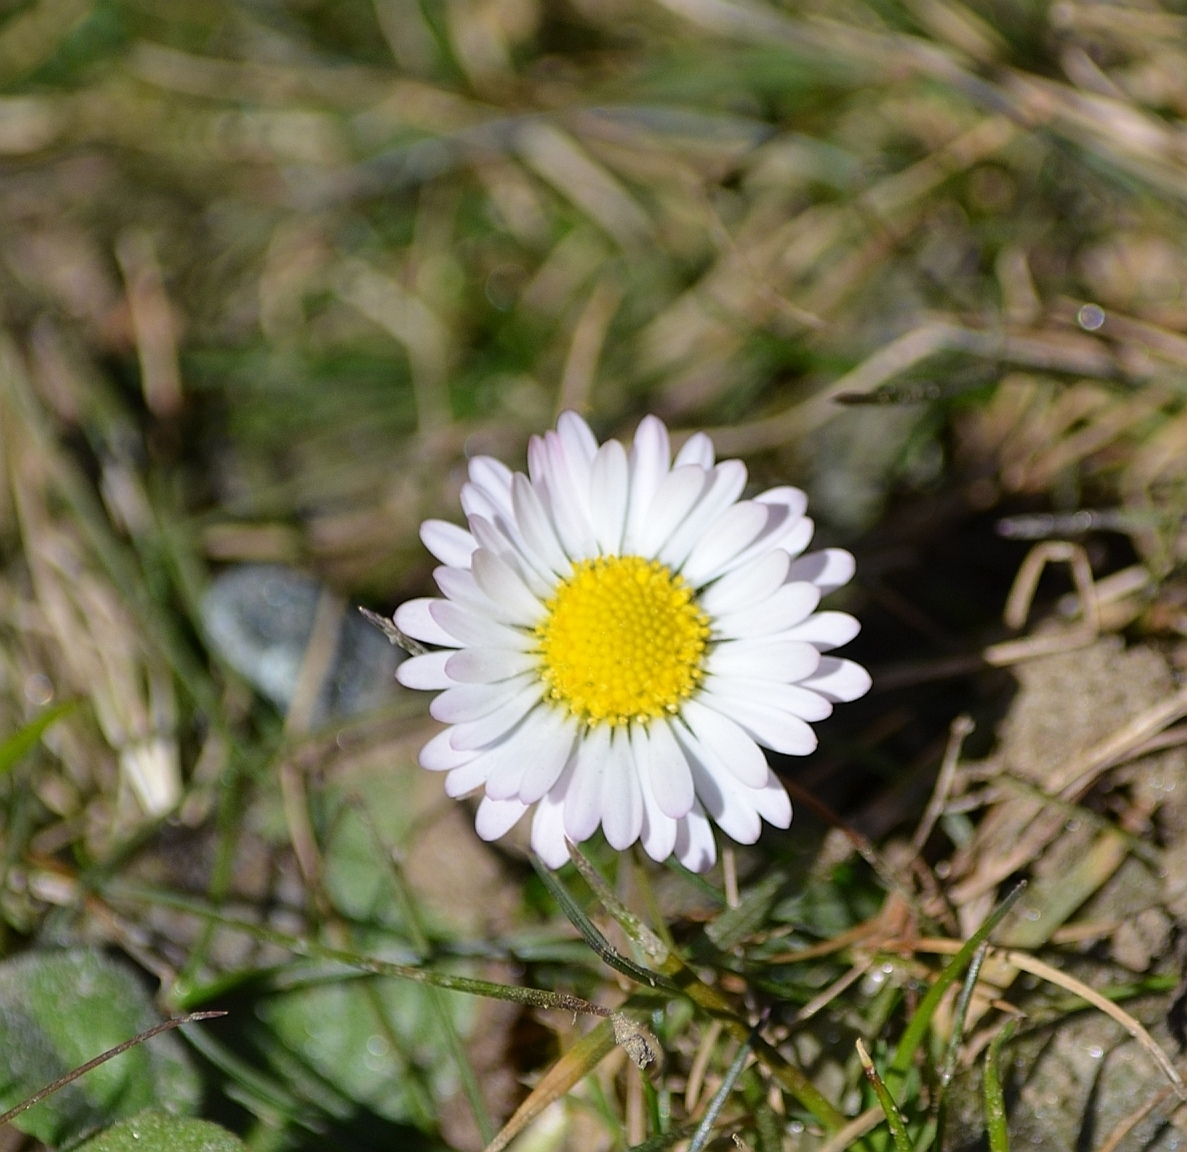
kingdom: Plantae
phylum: Tracheophyta
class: Magnoliopsida
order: Asterales
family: Asteraceae
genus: Bellis
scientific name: Bellis perennis
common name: Lawndaisy
